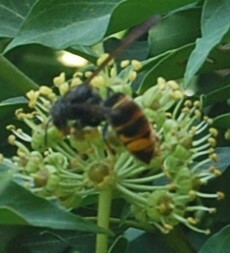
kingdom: Animalia
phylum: Arthropoda
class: Insecta
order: Hymenoptera
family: Vespidae
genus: Vespa
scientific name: Vespa velutina
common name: Asian hornet
